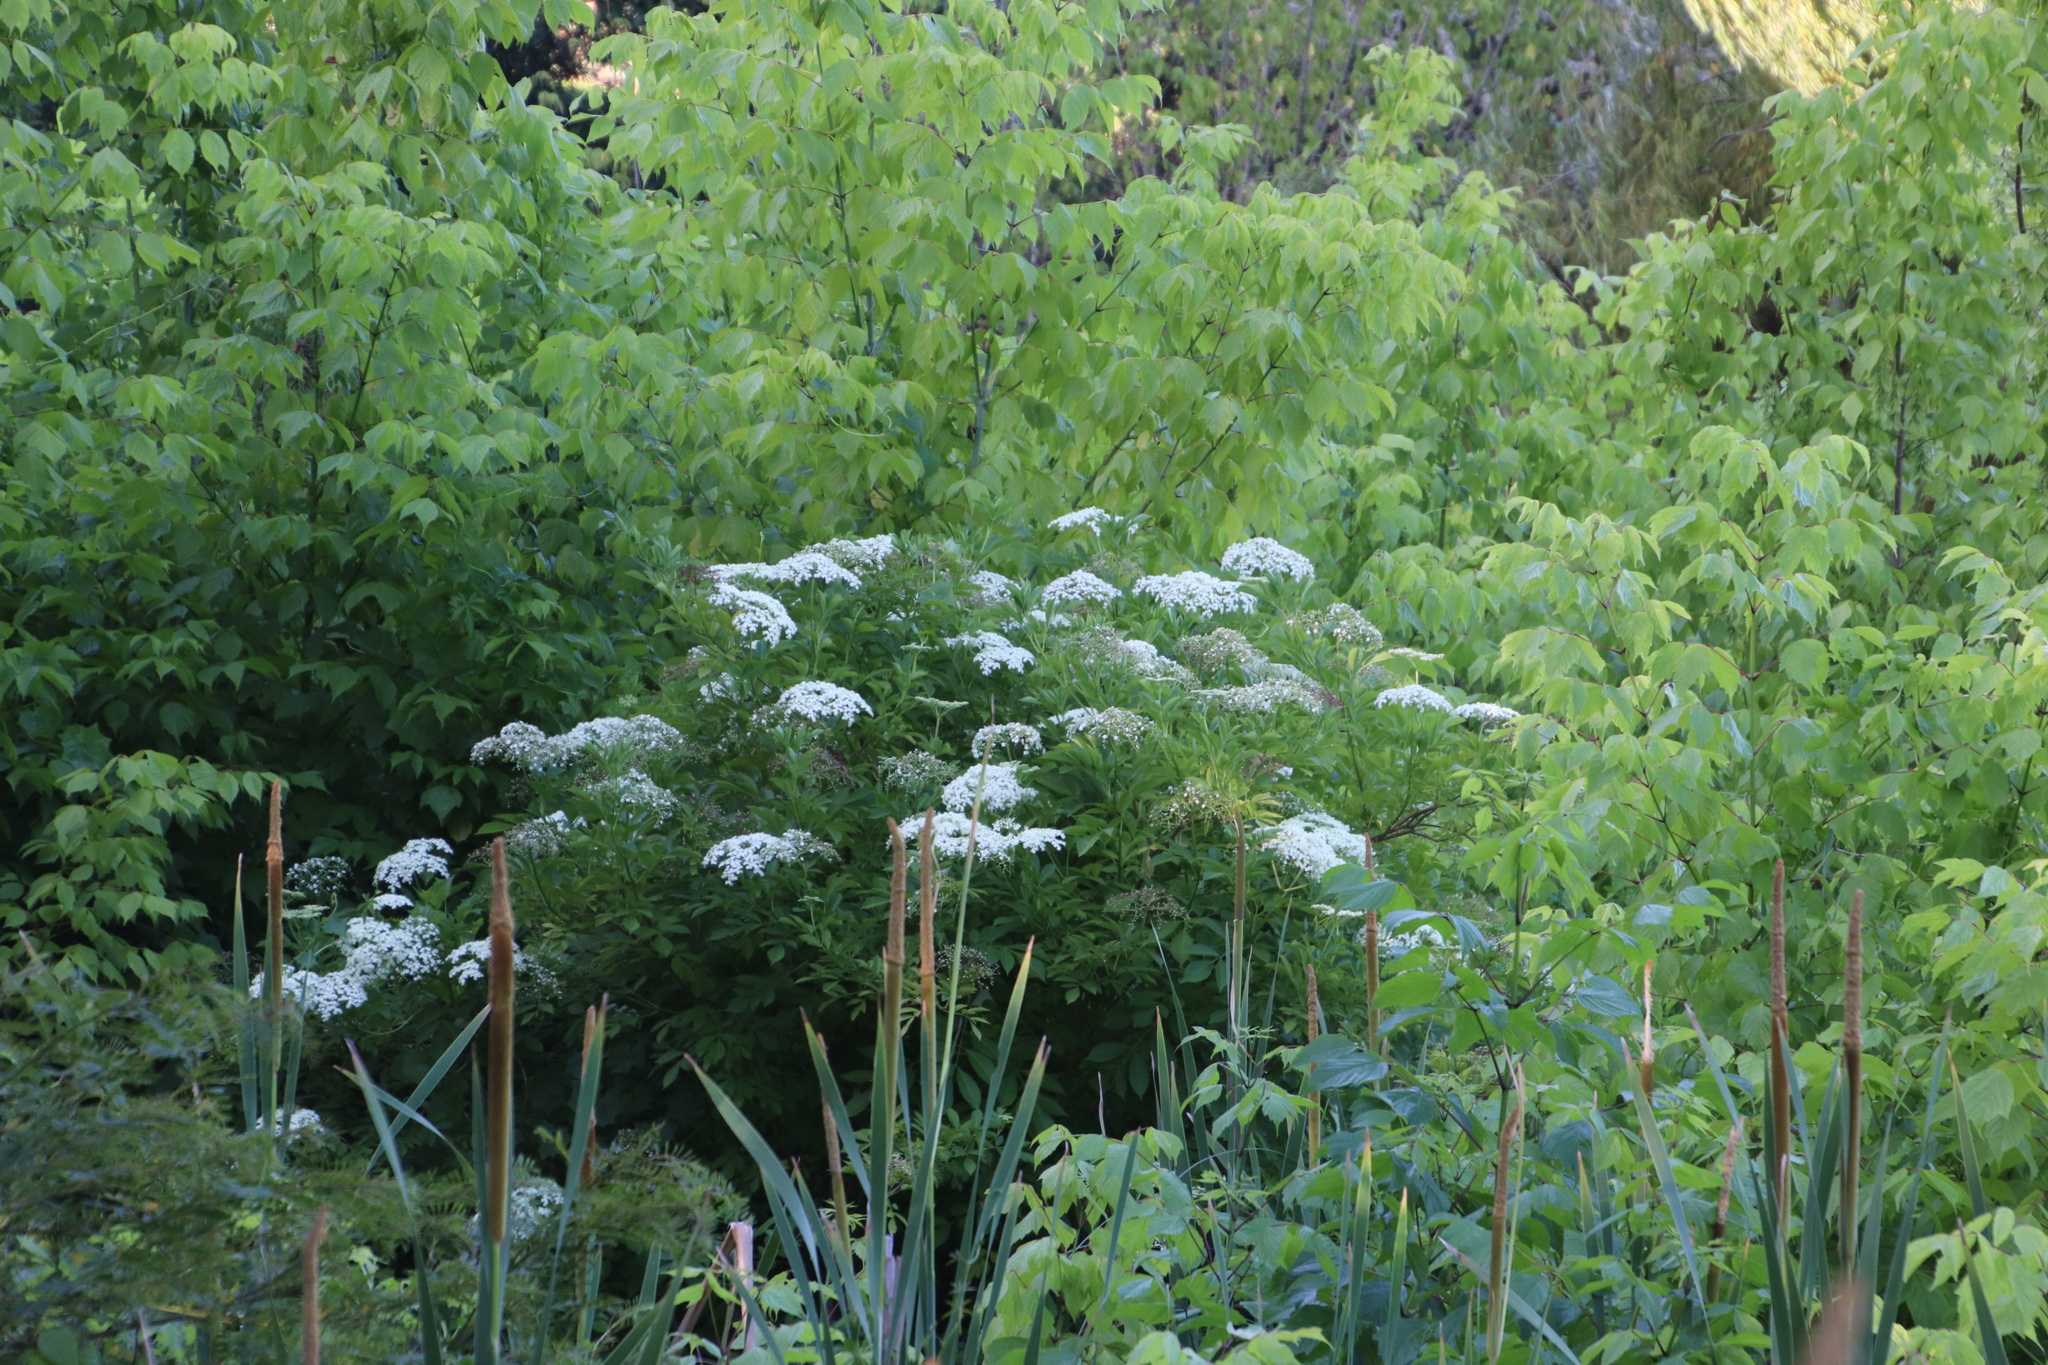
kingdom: Plantae
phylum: Tracheophyta
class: Magnoliopsida
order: Dipsacales
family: Viburnaceae
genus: Sambucus
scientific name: Sambucus nigra
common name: Elder
